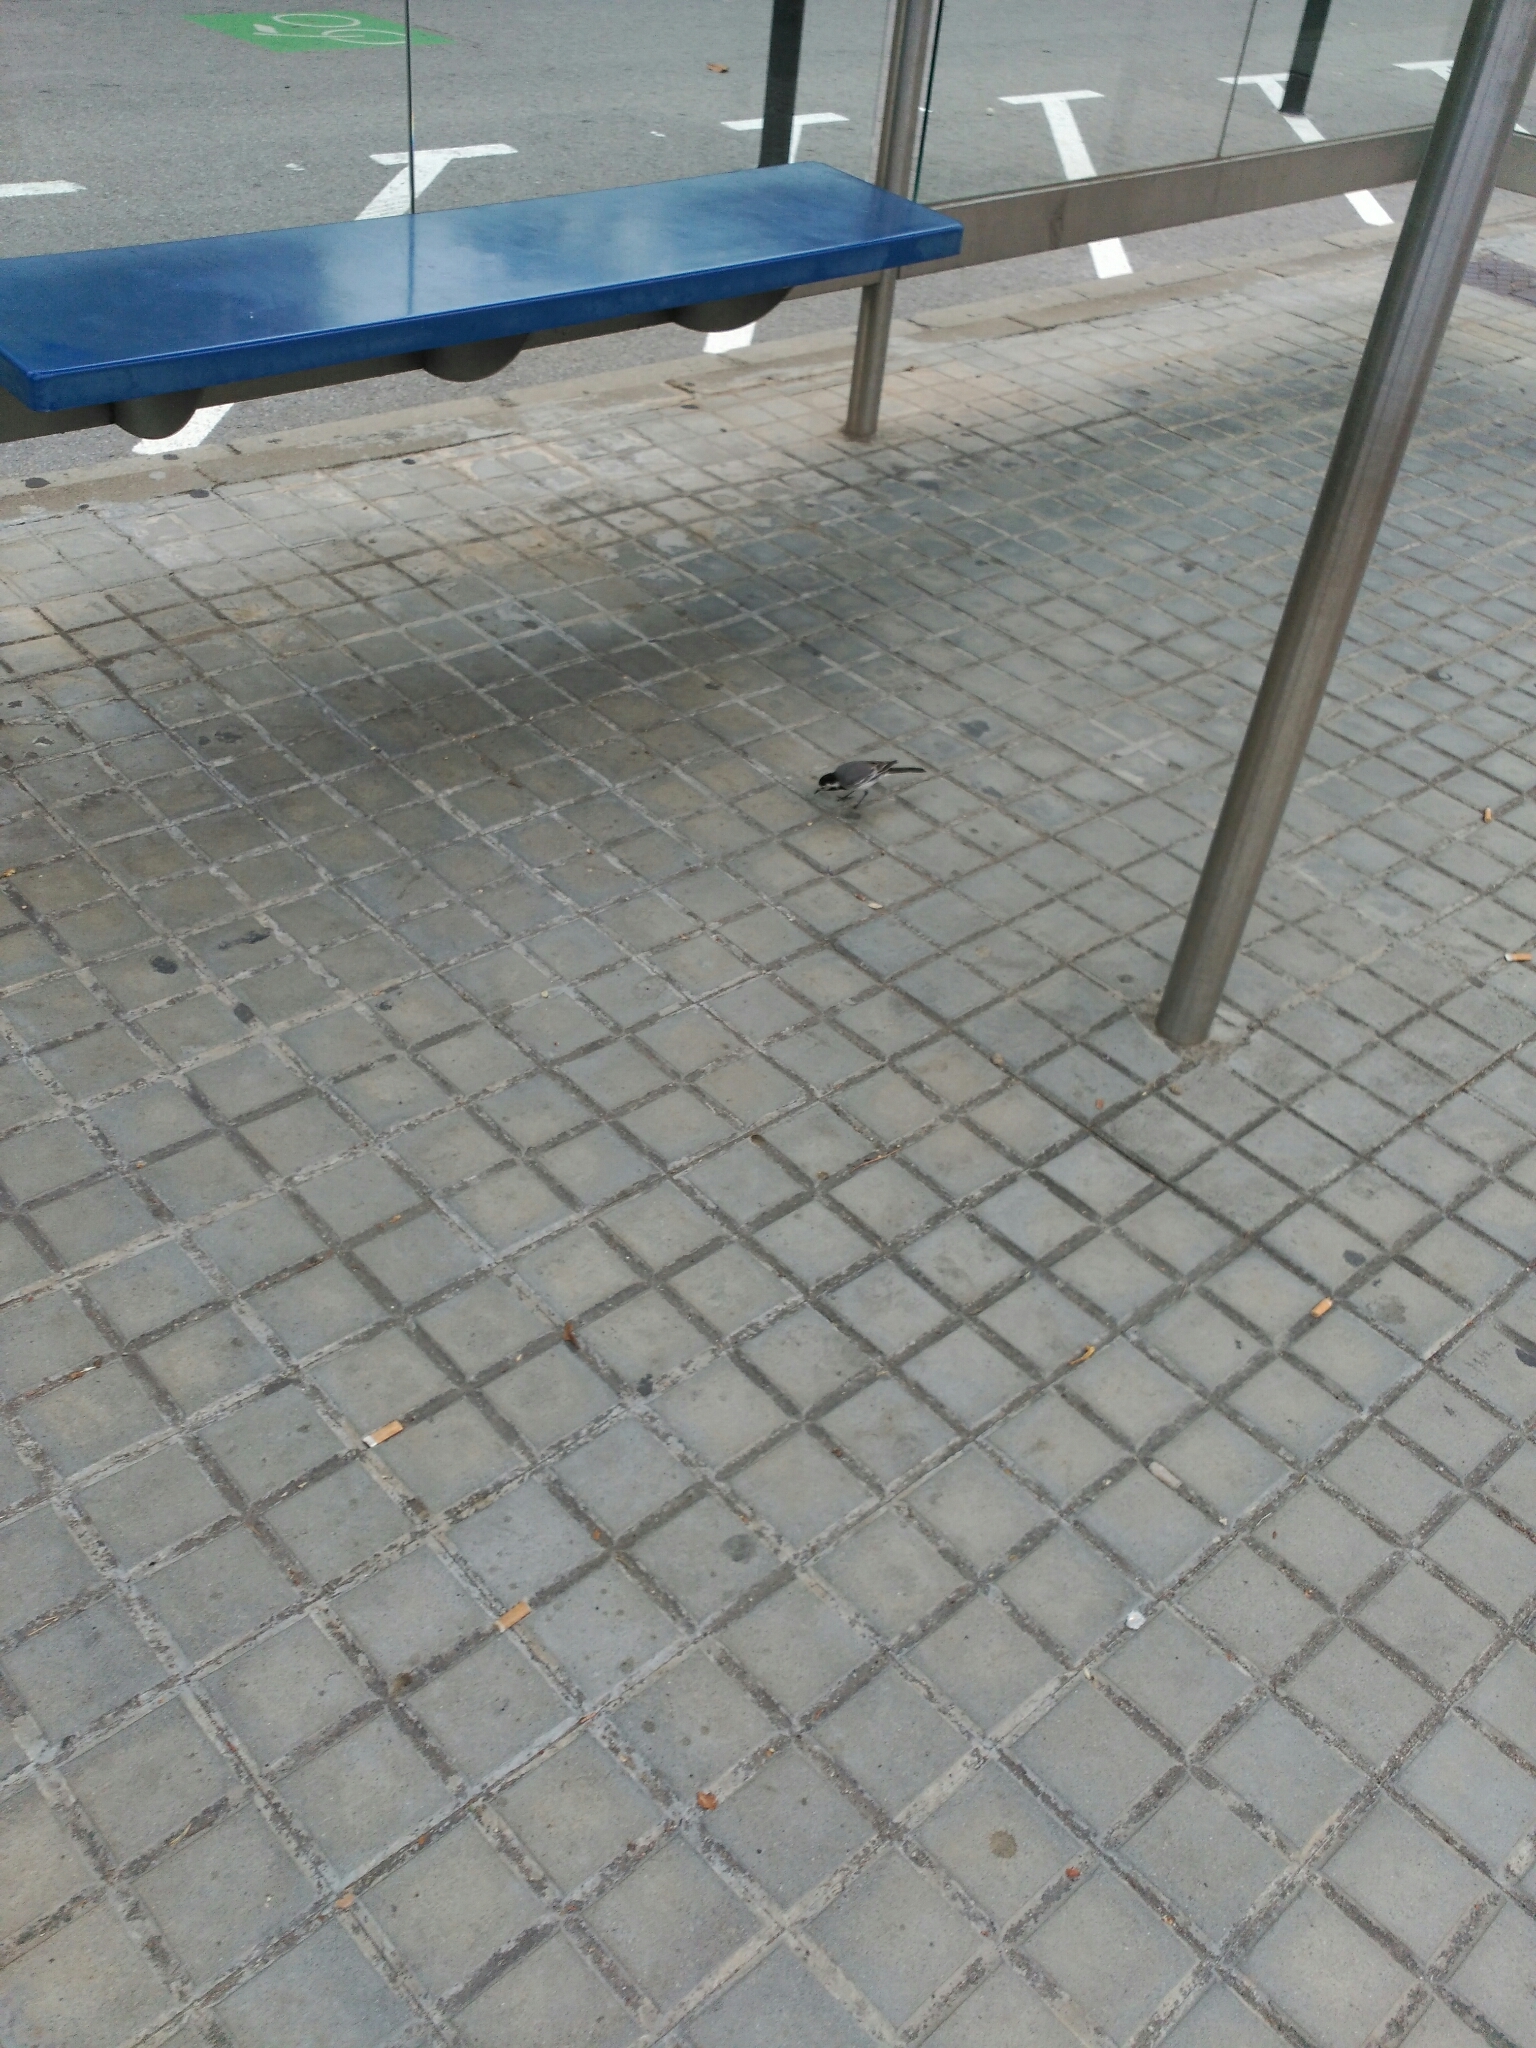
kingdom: Animalia
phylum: Chordata
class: Aves
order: Passeriformes
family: Motacillidae
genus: Motacilla
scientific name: Motacilla alba
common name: White wagtail
